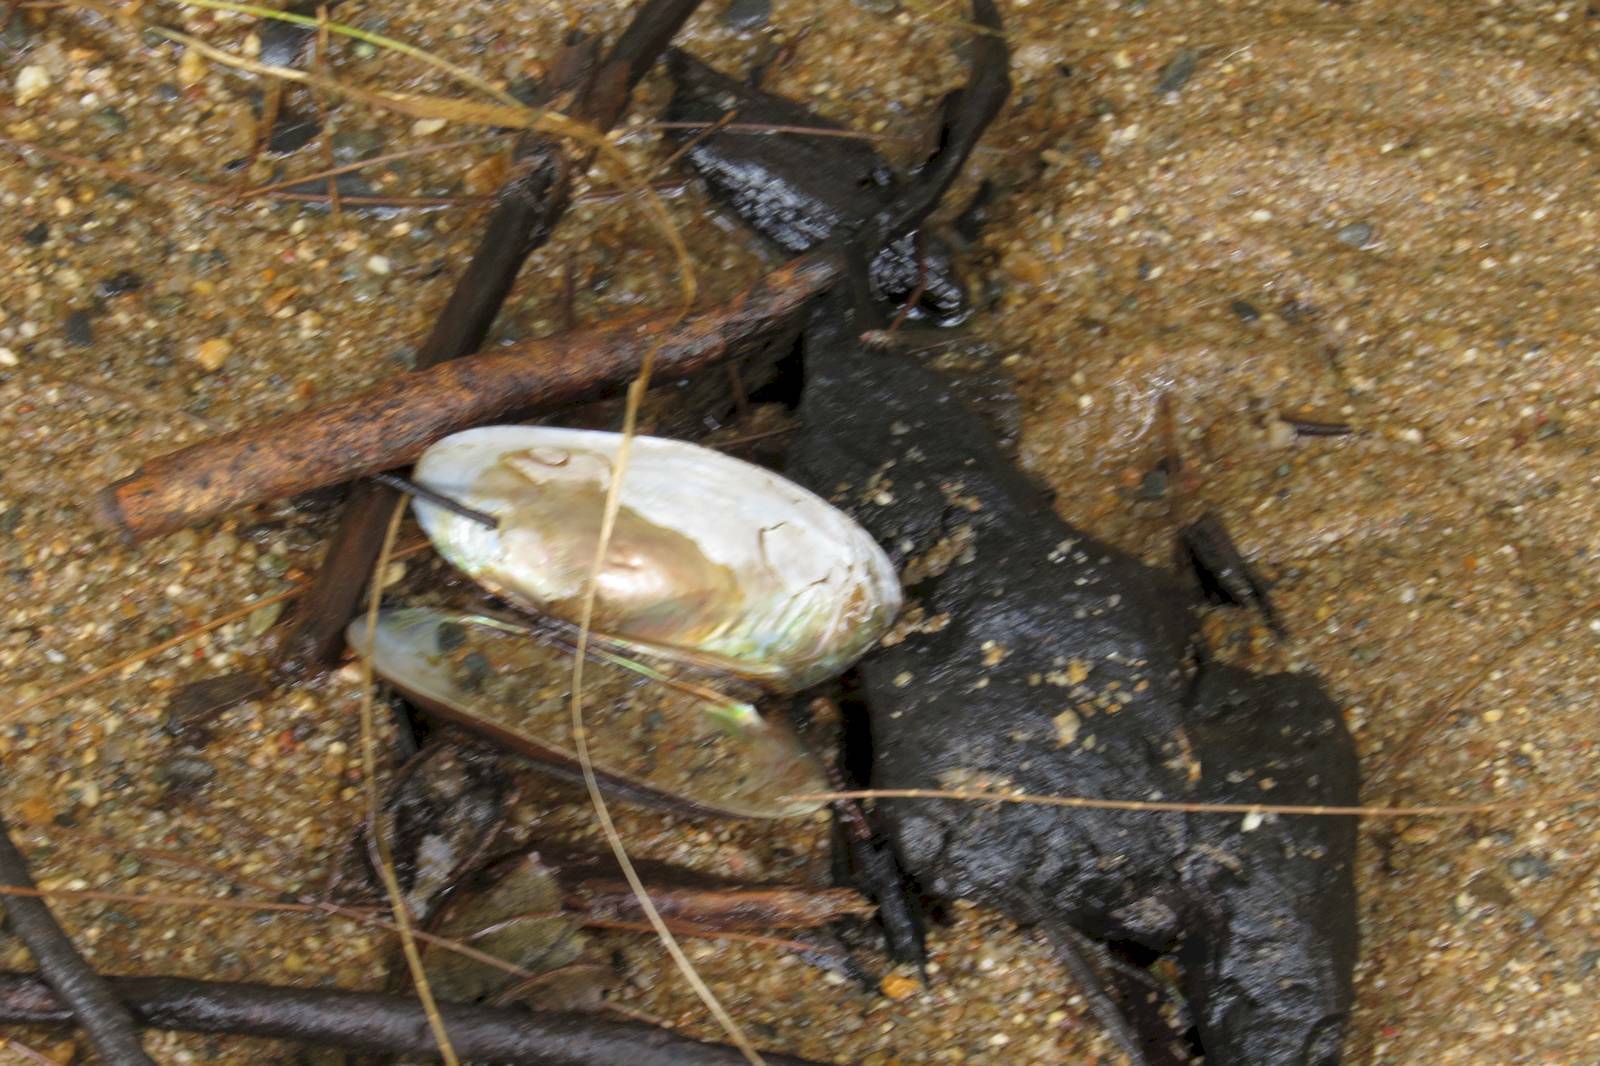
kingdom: Animalia
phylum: Mollusca
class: Bivalvia
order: Unionida
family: Hyriidae
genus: Velesunio
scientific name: Velesunio wilsonii
